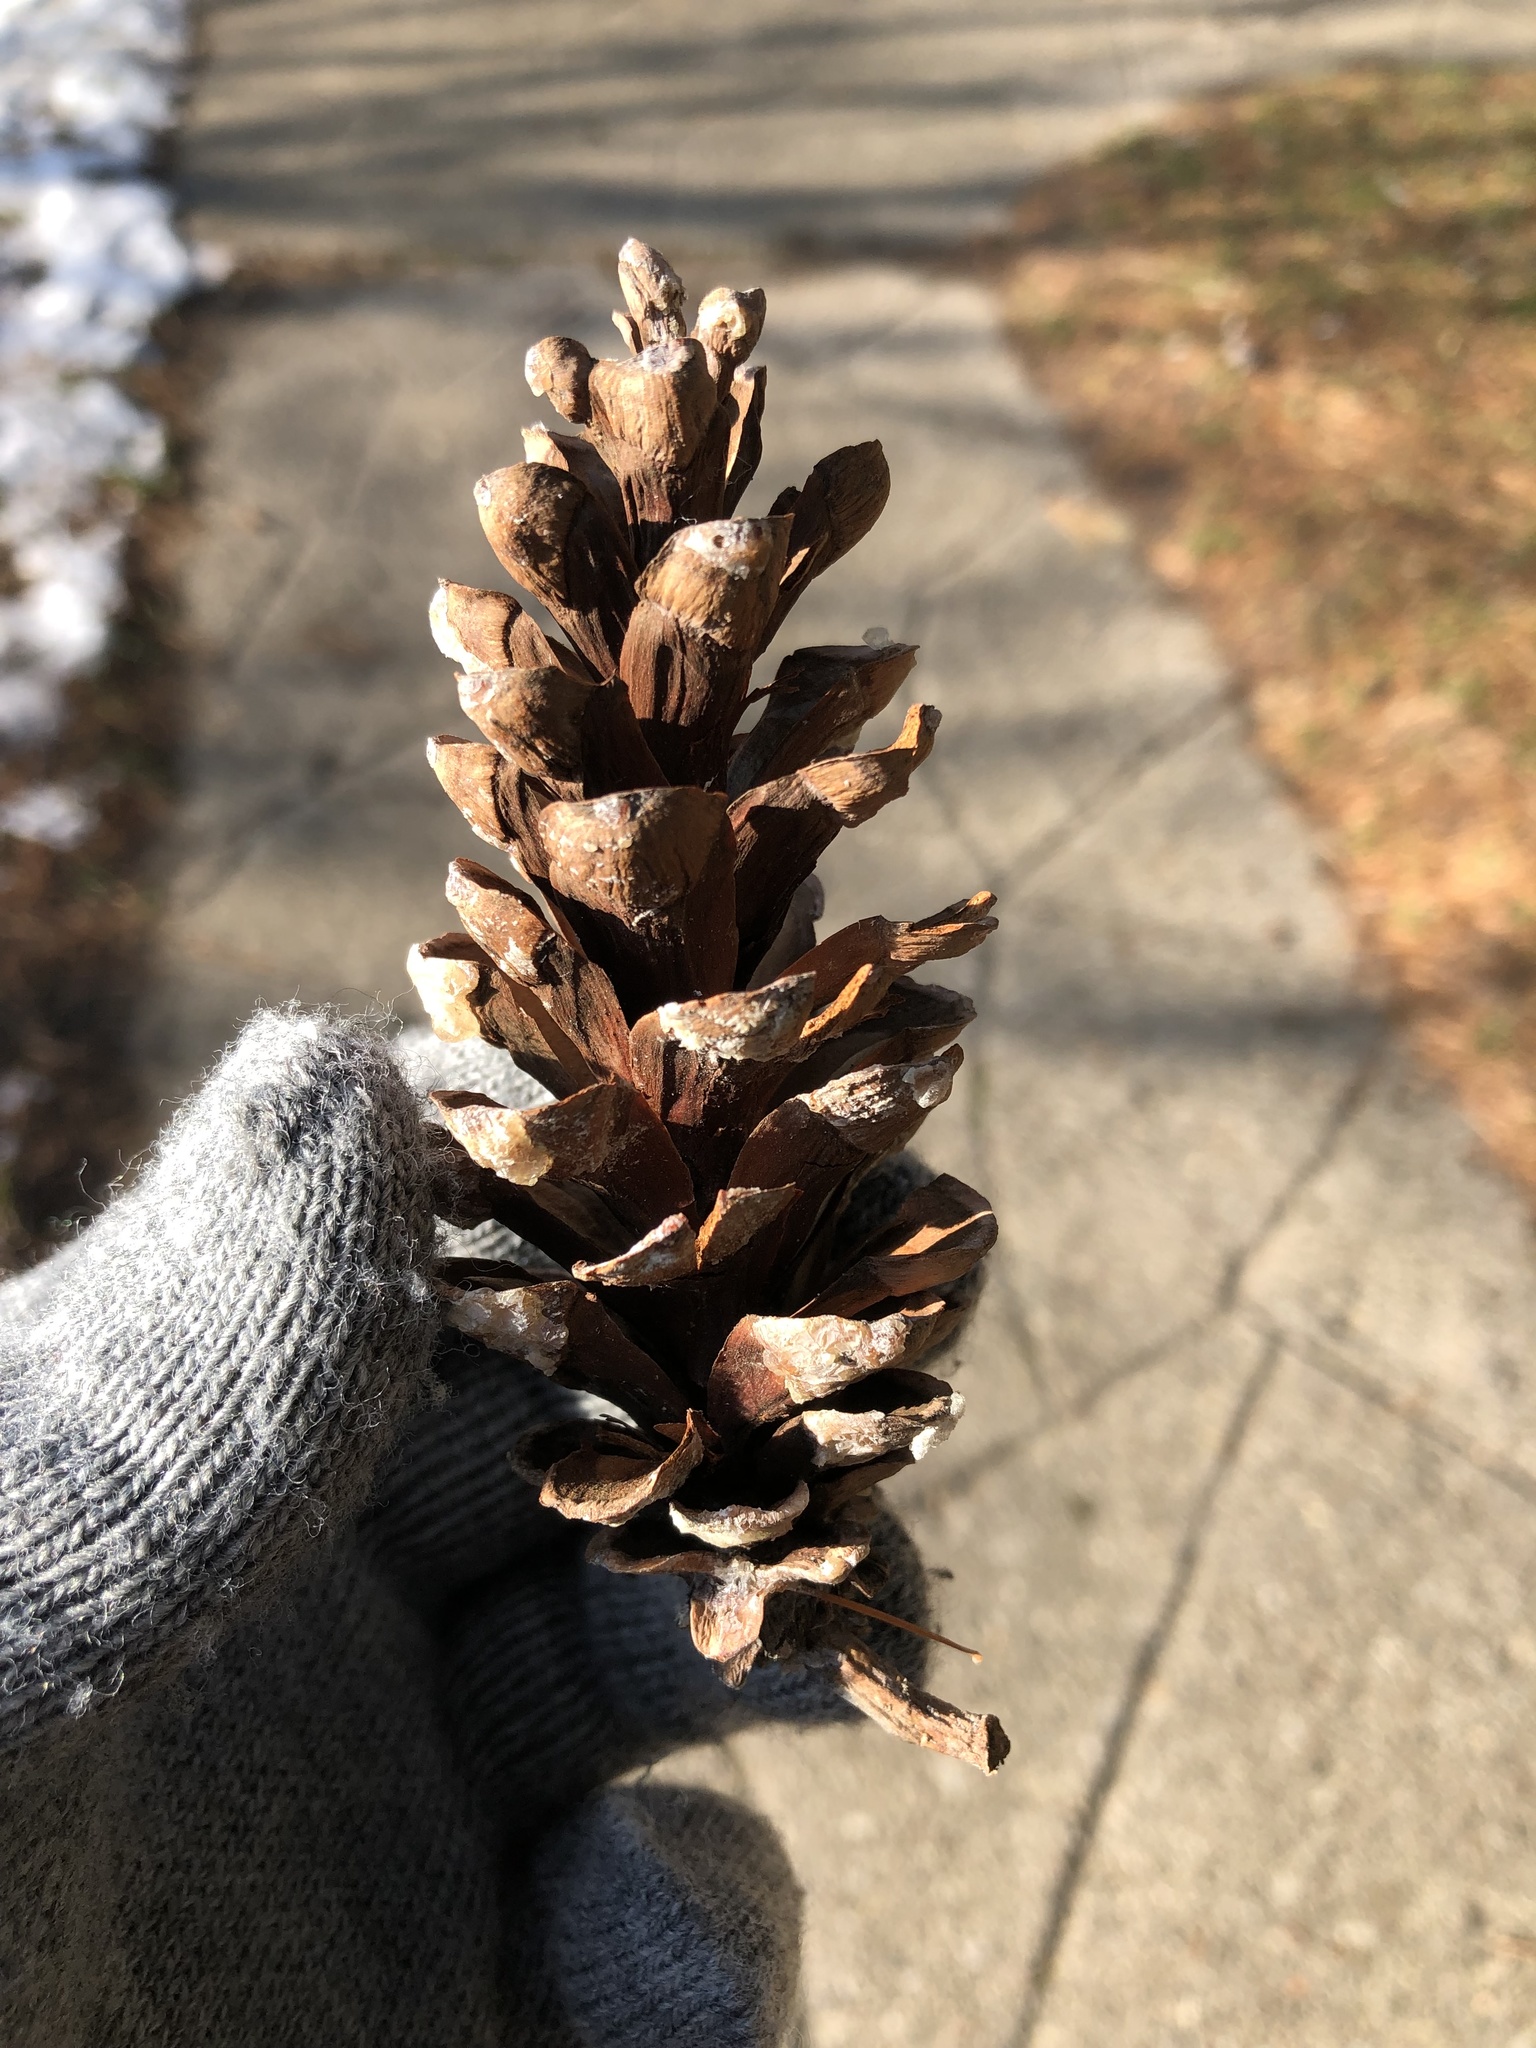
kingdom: Plantae
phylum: Tracheophyta
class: Pinopsida
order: Pinales
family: Pinaceae
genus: Pinus
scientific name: Pinus strobus
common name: Weymouth pine
